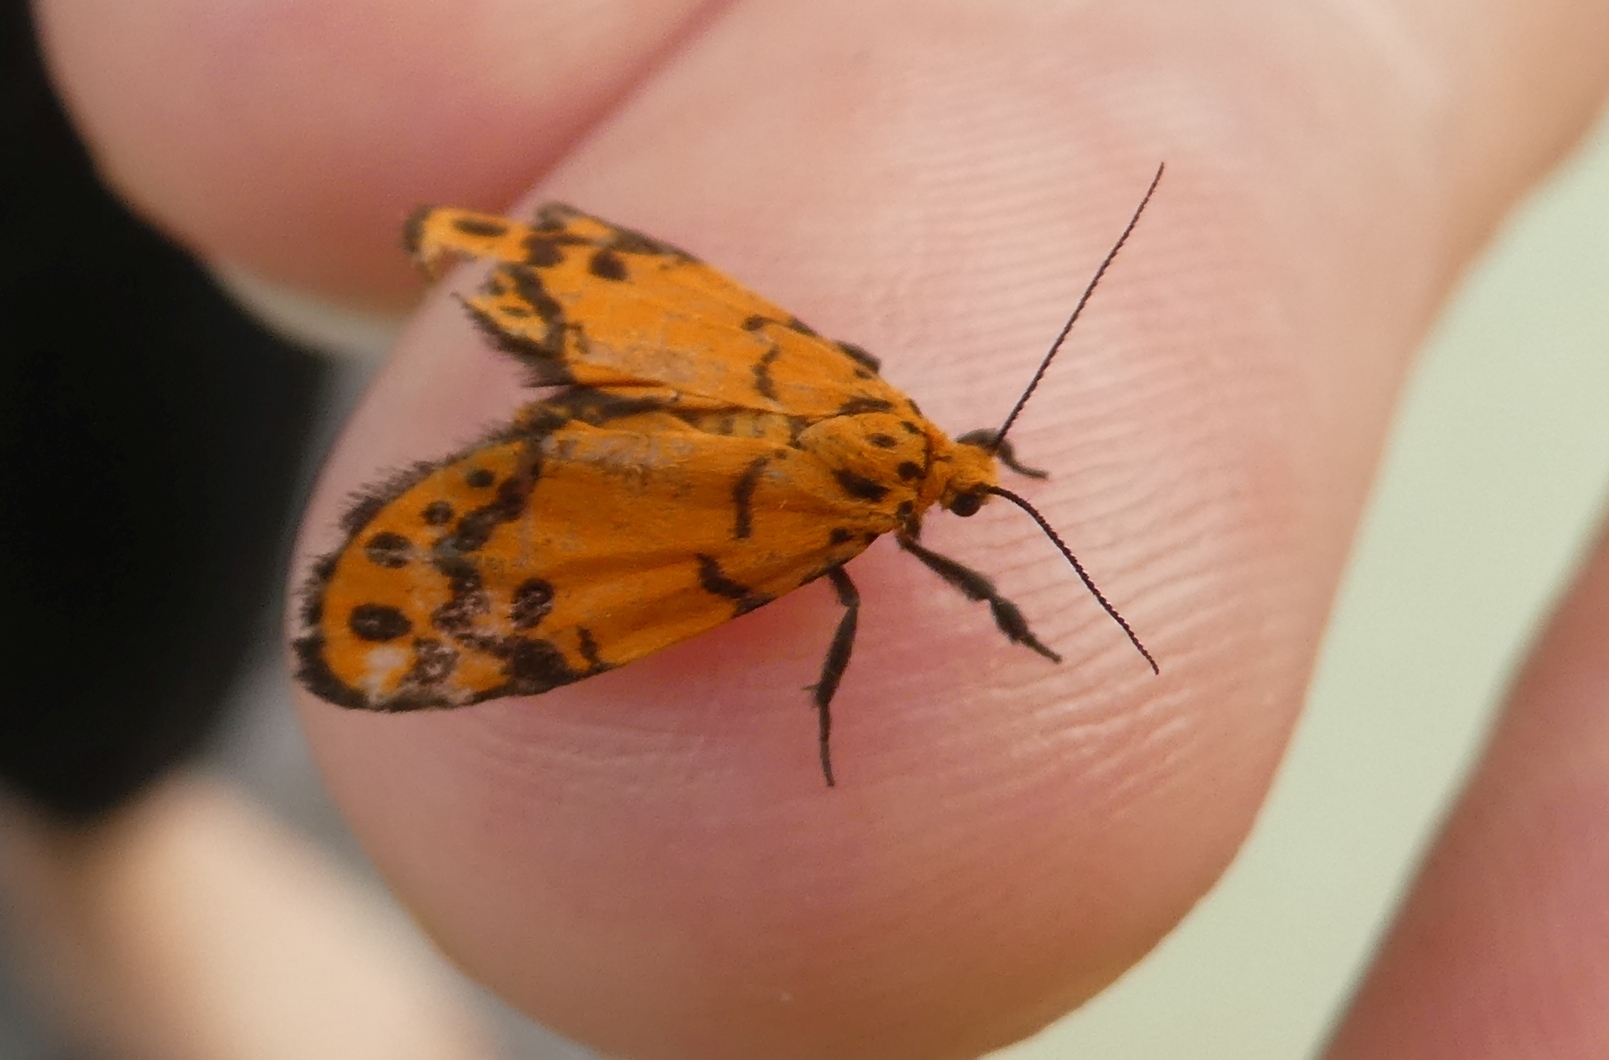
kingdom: Animalia
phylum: Arthropoda
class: Insecta
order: Lepidoptera
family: Erebidae
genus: Trichocerosia
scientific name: Trichocerosia variabilis
